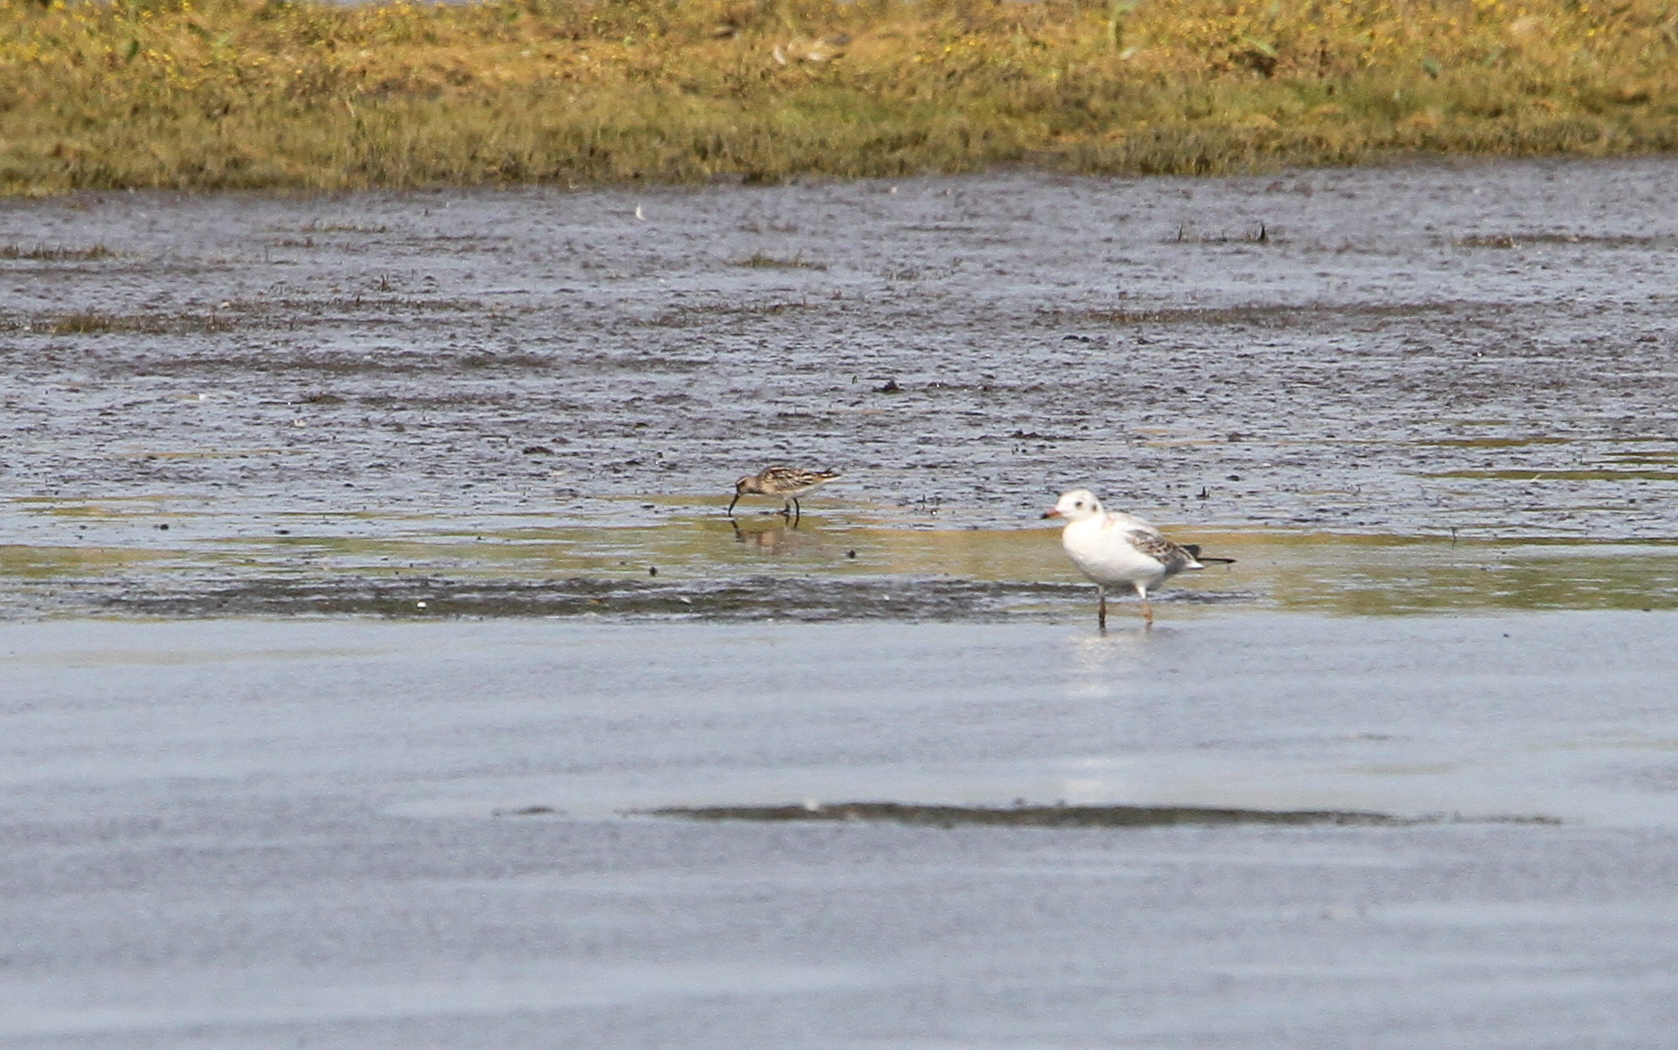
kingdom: Animalia
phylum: Chordata
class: Aves
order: Charadriiformes
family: Scolopacidae
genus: Calidris
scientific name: Calidris falcinellus
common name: Broad-billed sandpiper
